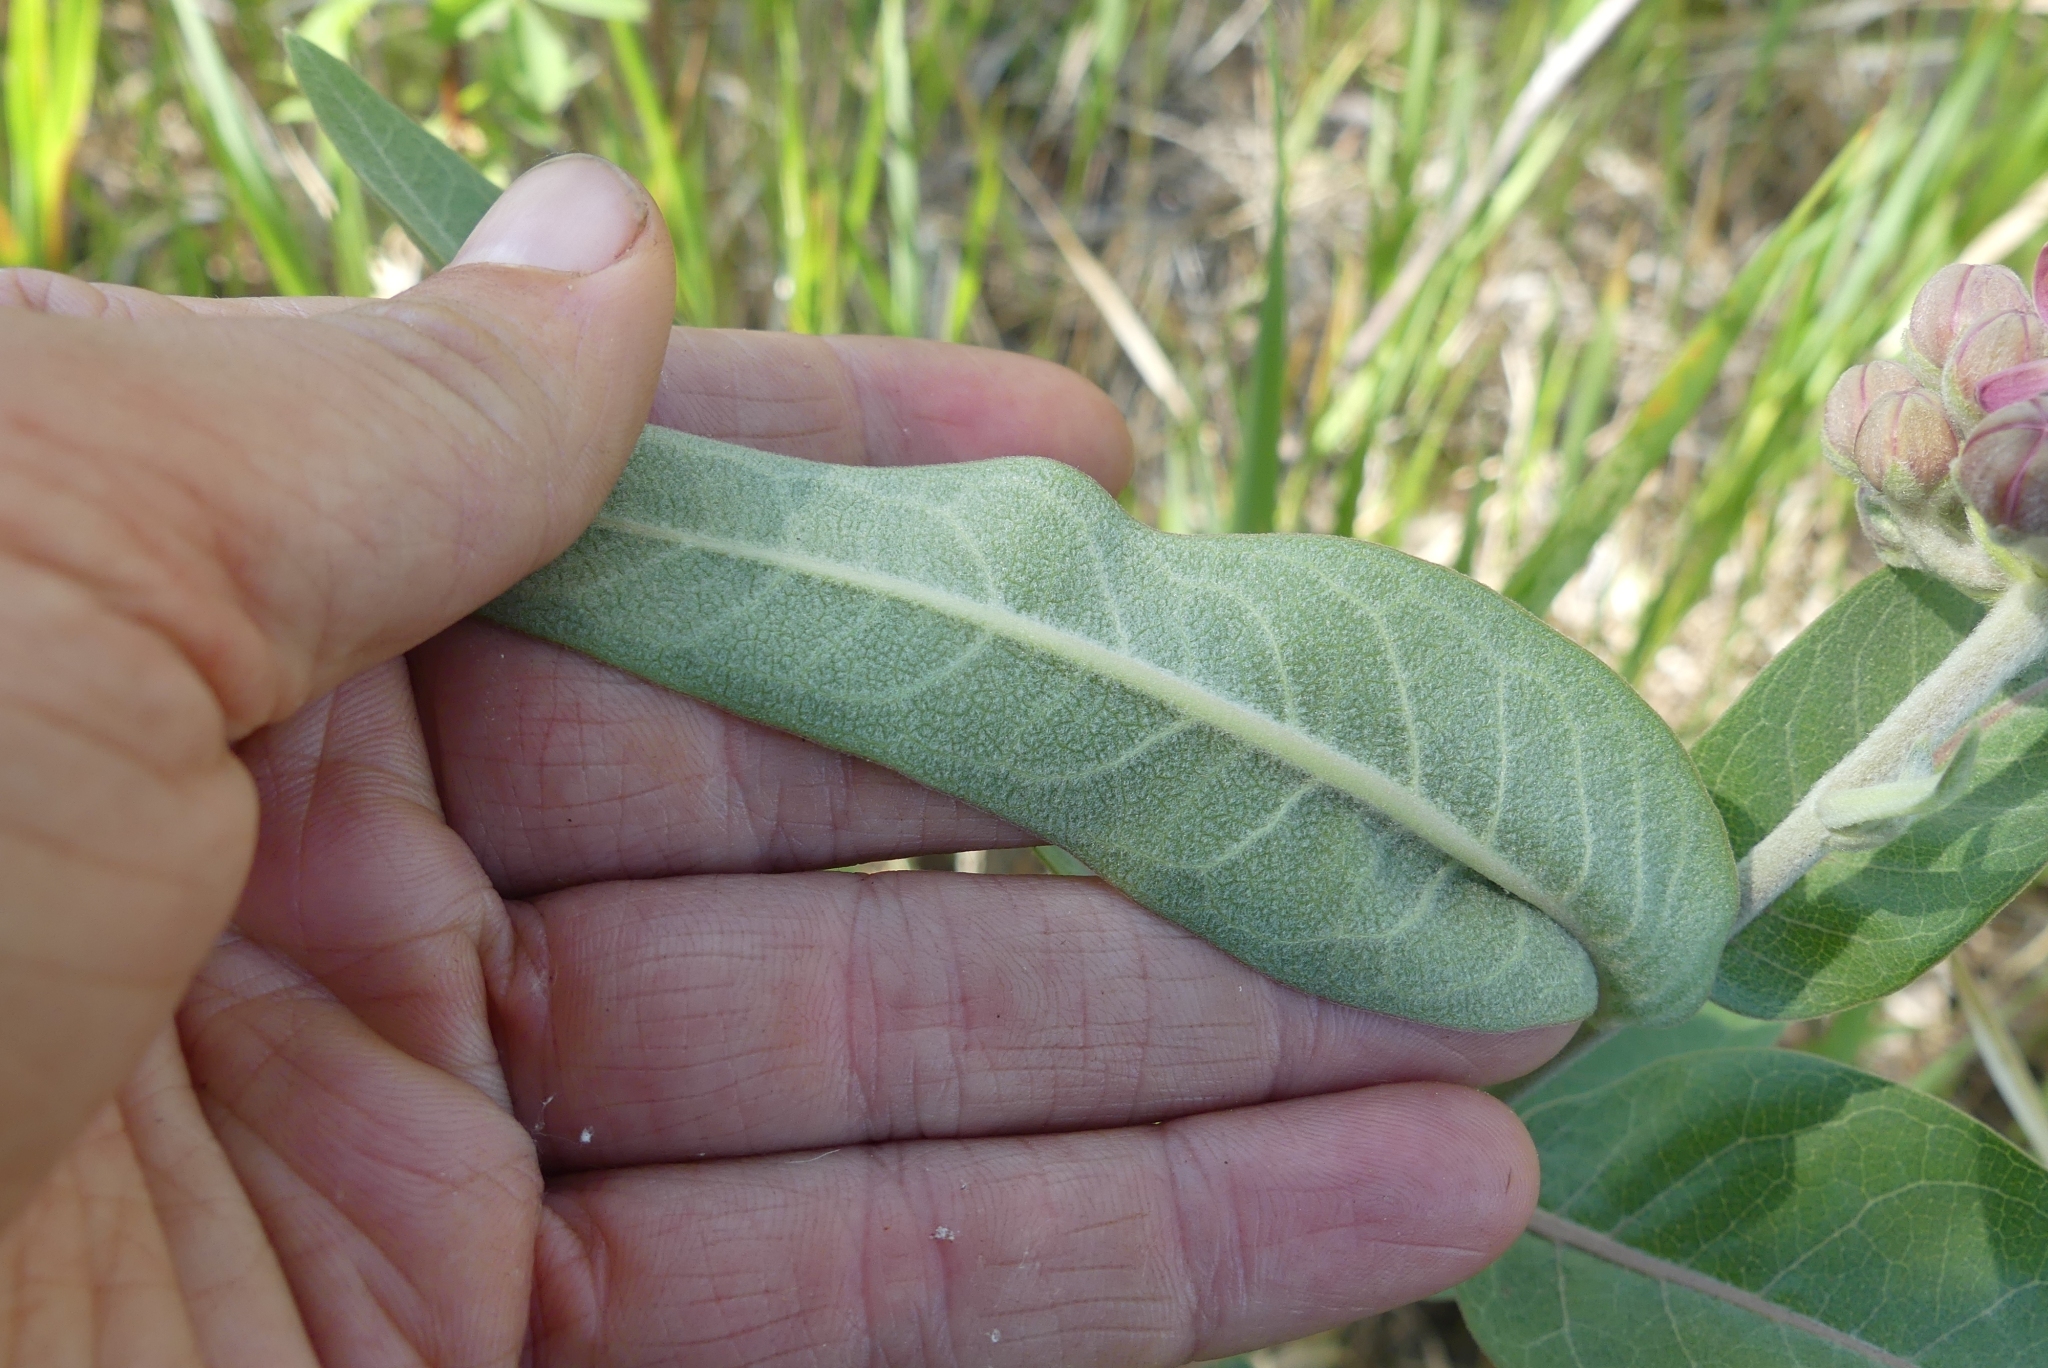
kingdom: Plantae
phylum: Tracheophyta
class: Magnoliopsida
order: Gentianales
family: Apocynaceae
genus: Asclepias
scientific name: Asclepias speciosa
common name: Showy milkweed
